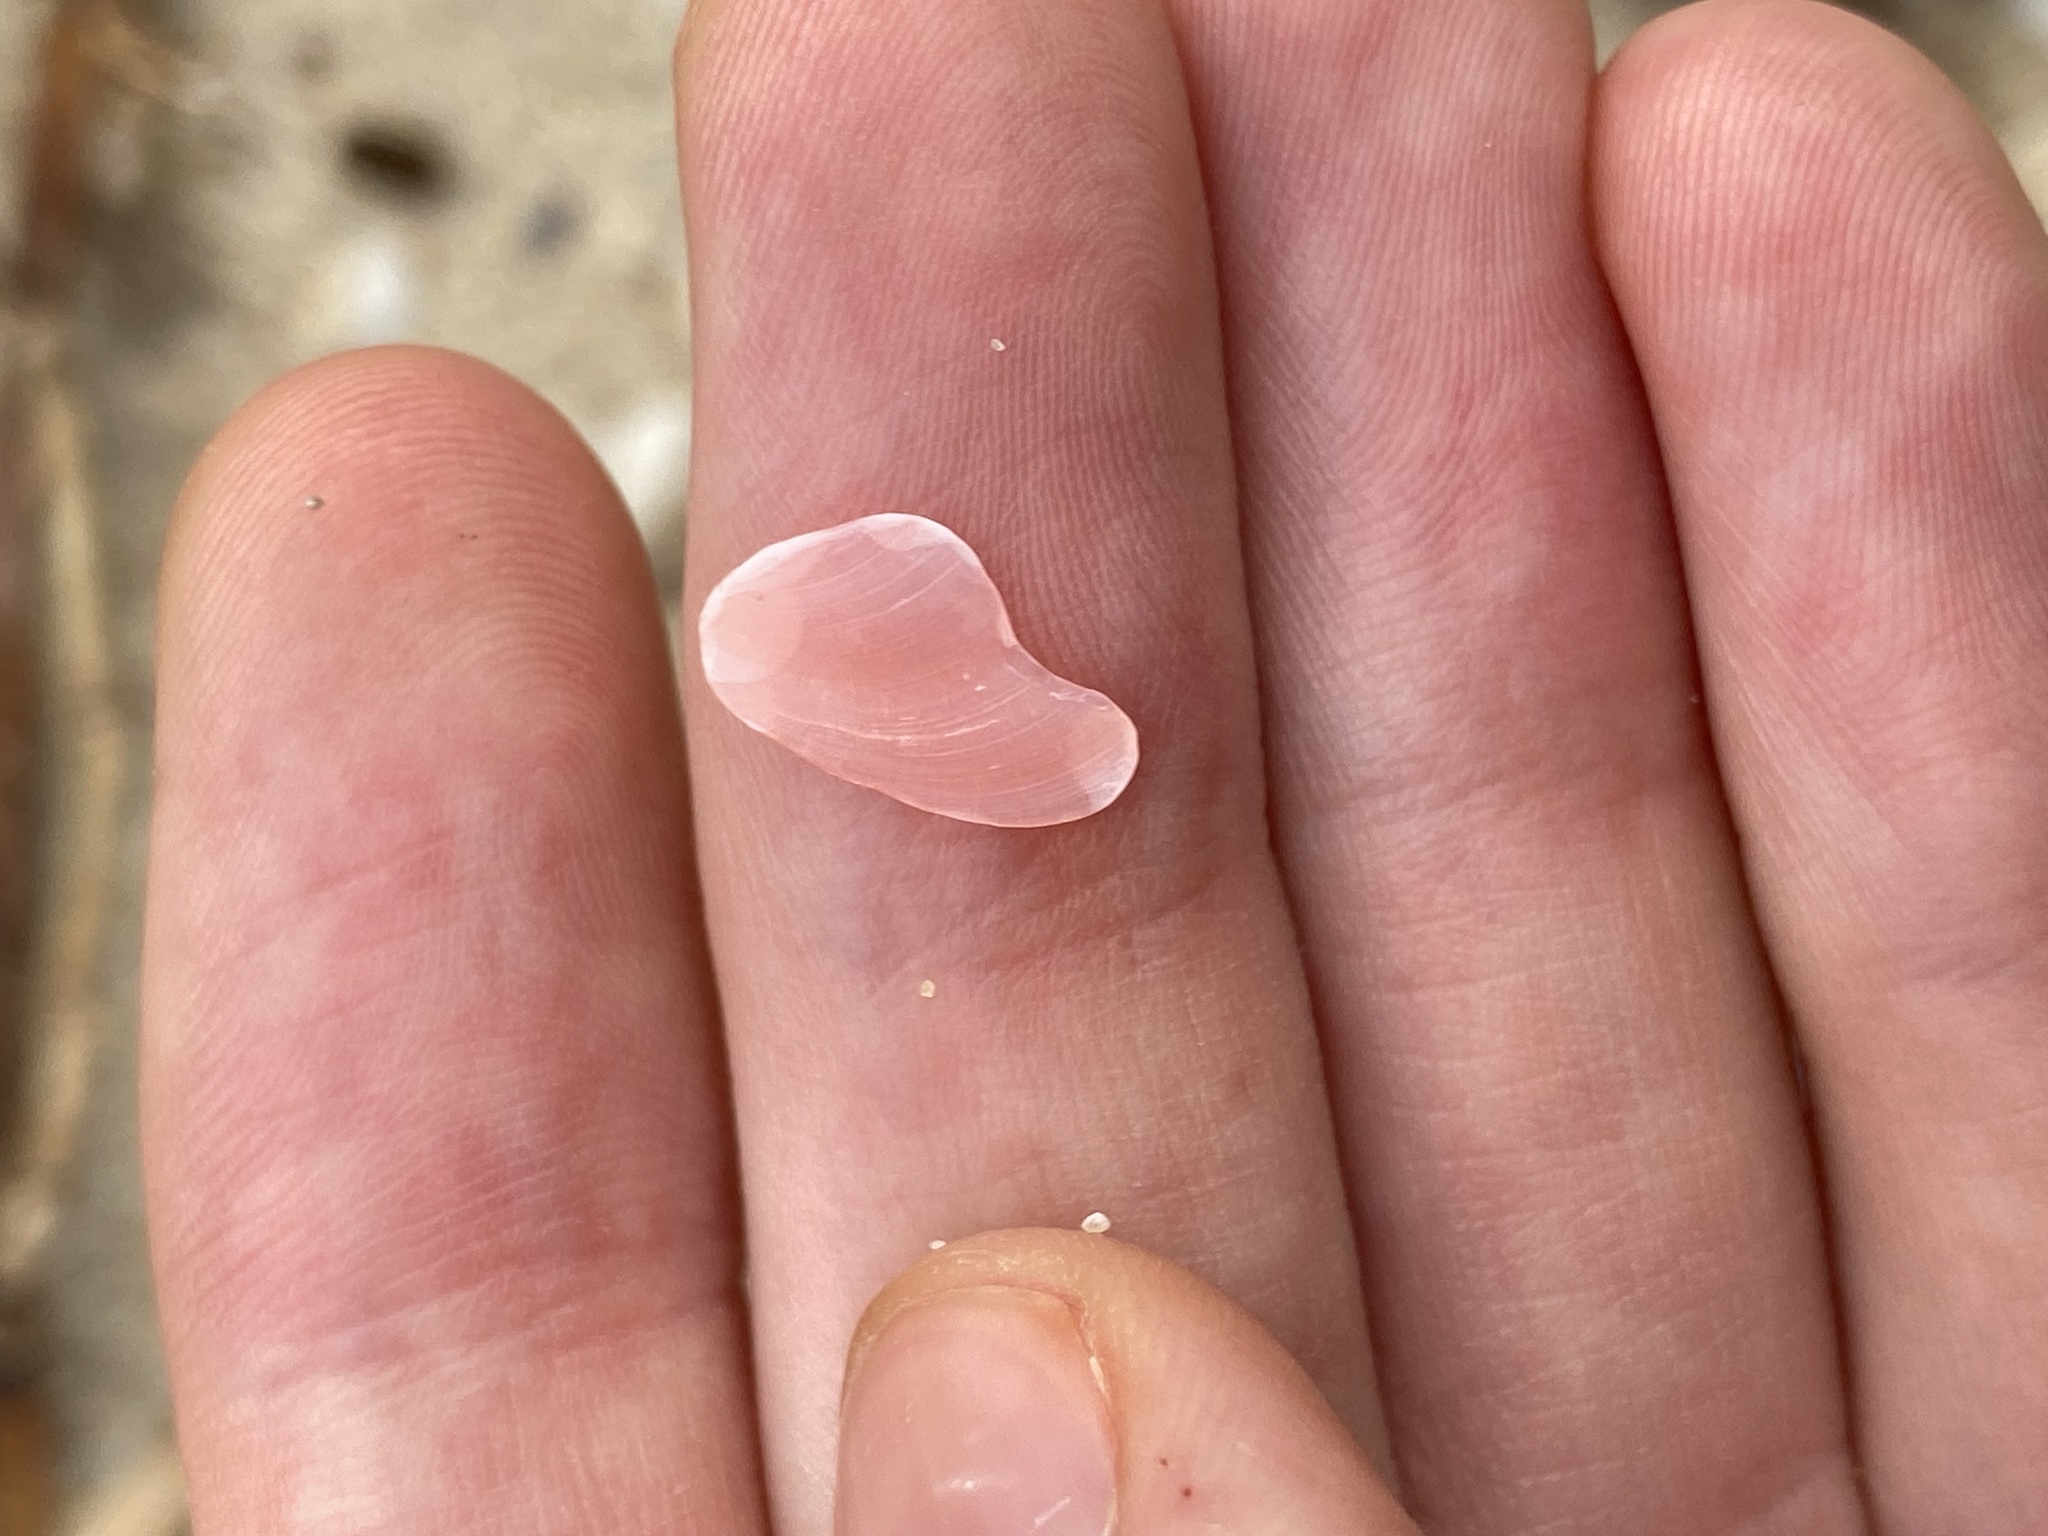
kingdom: Animalia
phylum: Mollusca
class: Bivalvia
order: Cardiida
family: Tellinidae
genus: Tellinota
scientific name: Tellinota albinella
